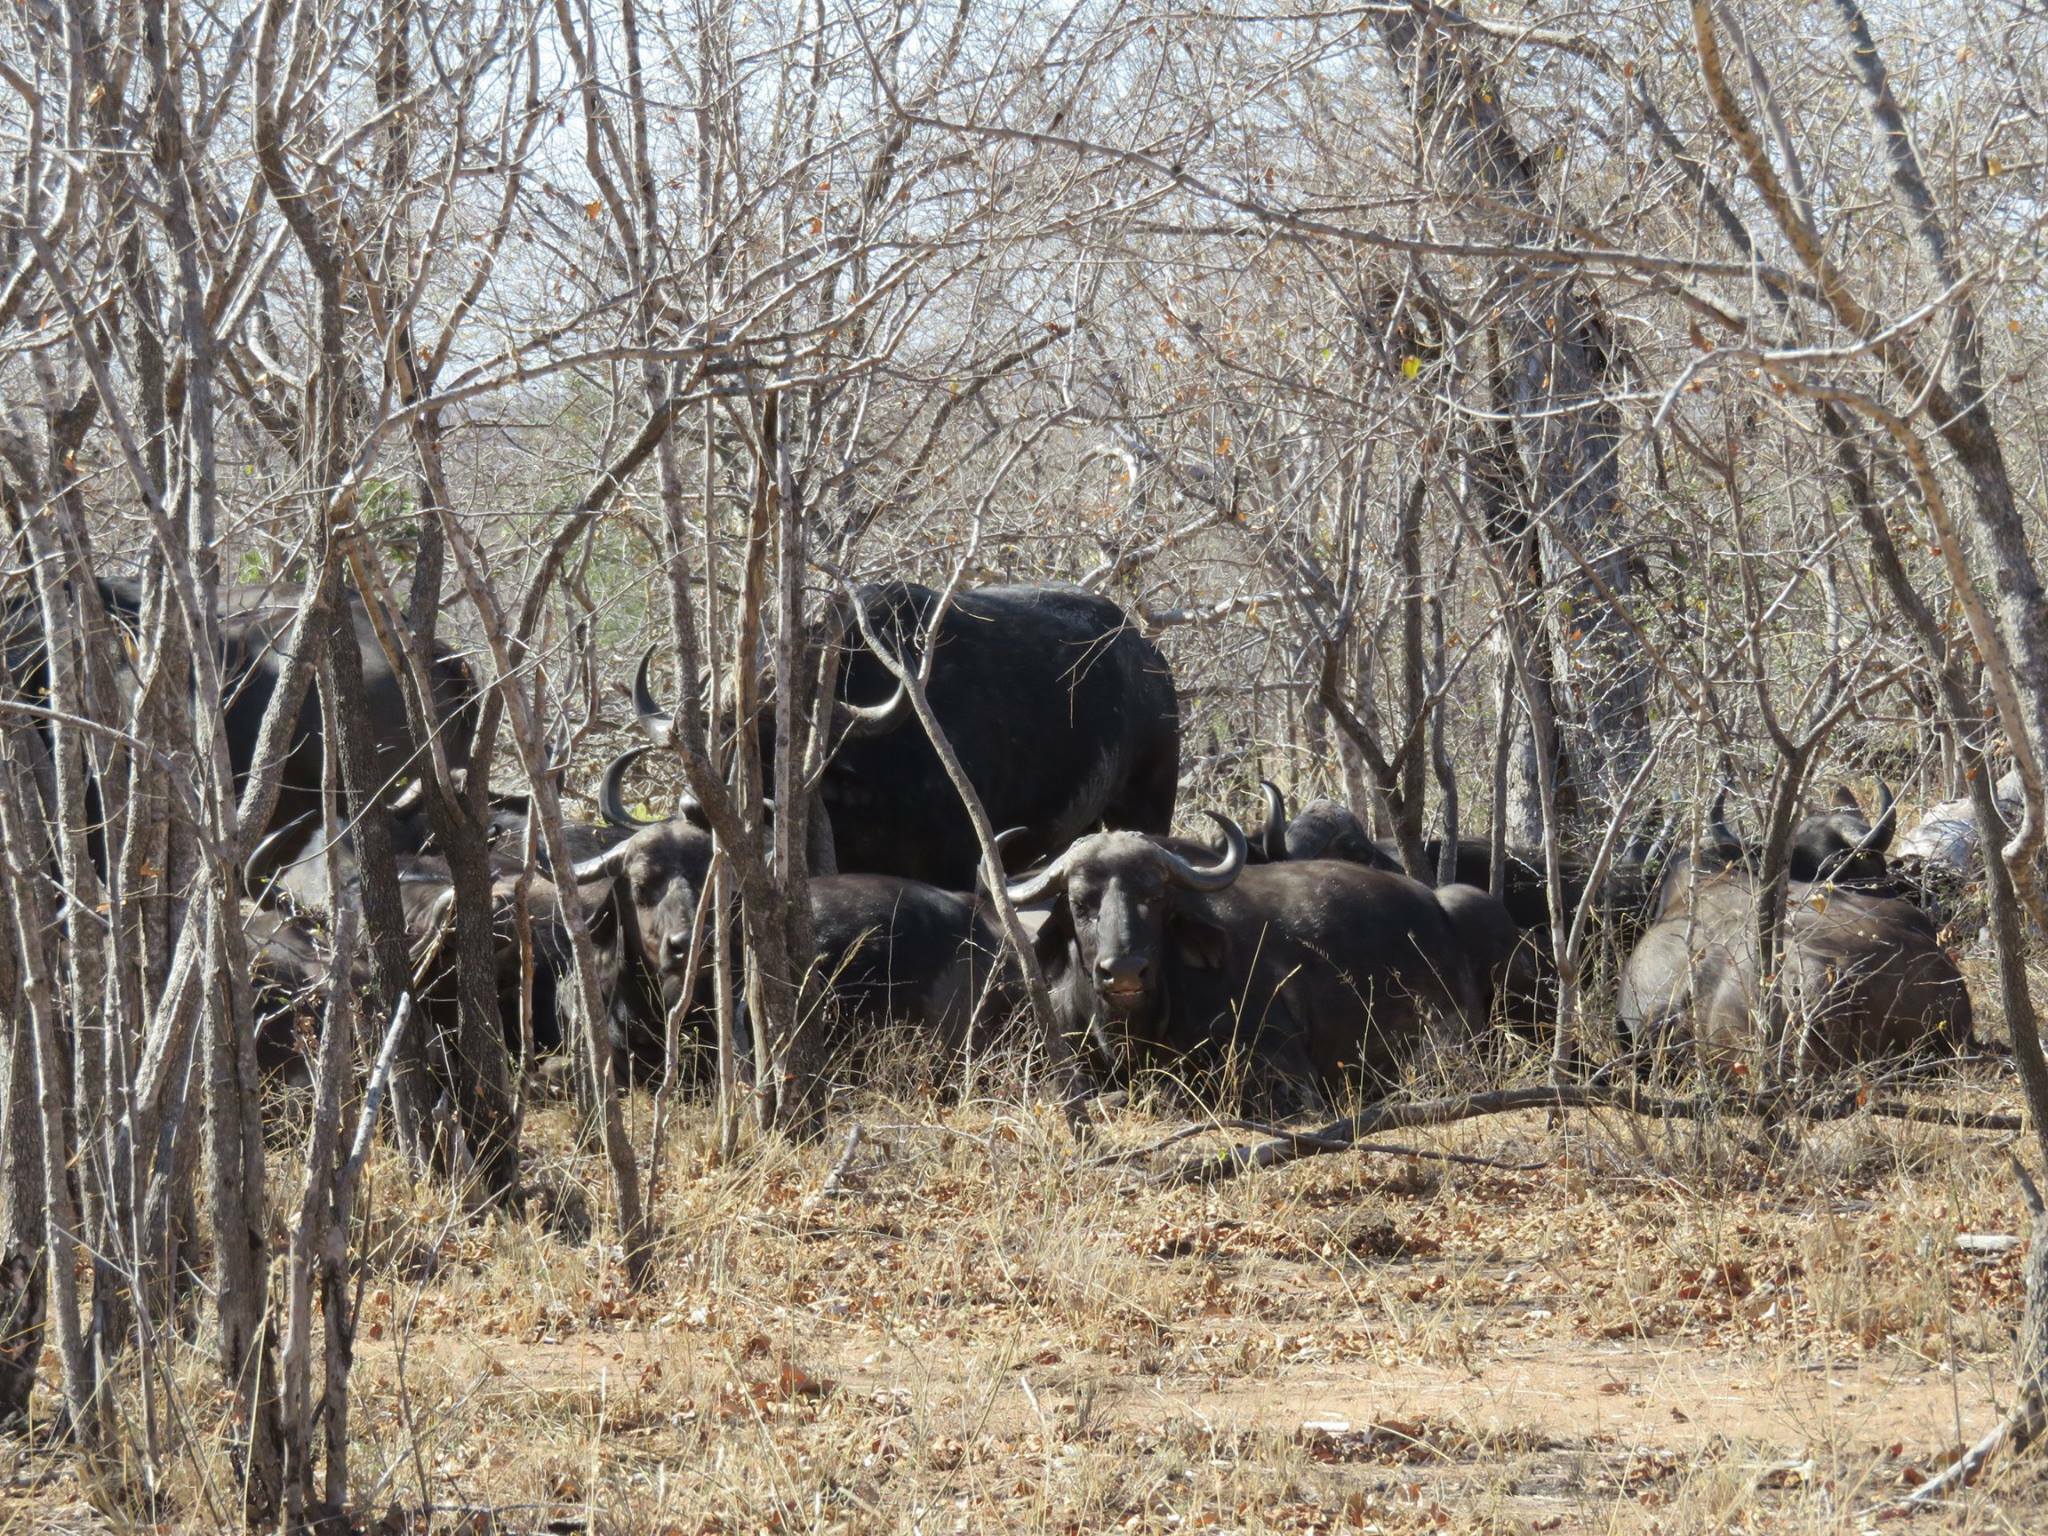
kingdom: Animalia
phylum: Chordata
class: Mammalia
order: Artiodactyla
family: Bovidae
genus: Syncerus
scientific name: Syncerus caffer
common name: African buffalo
